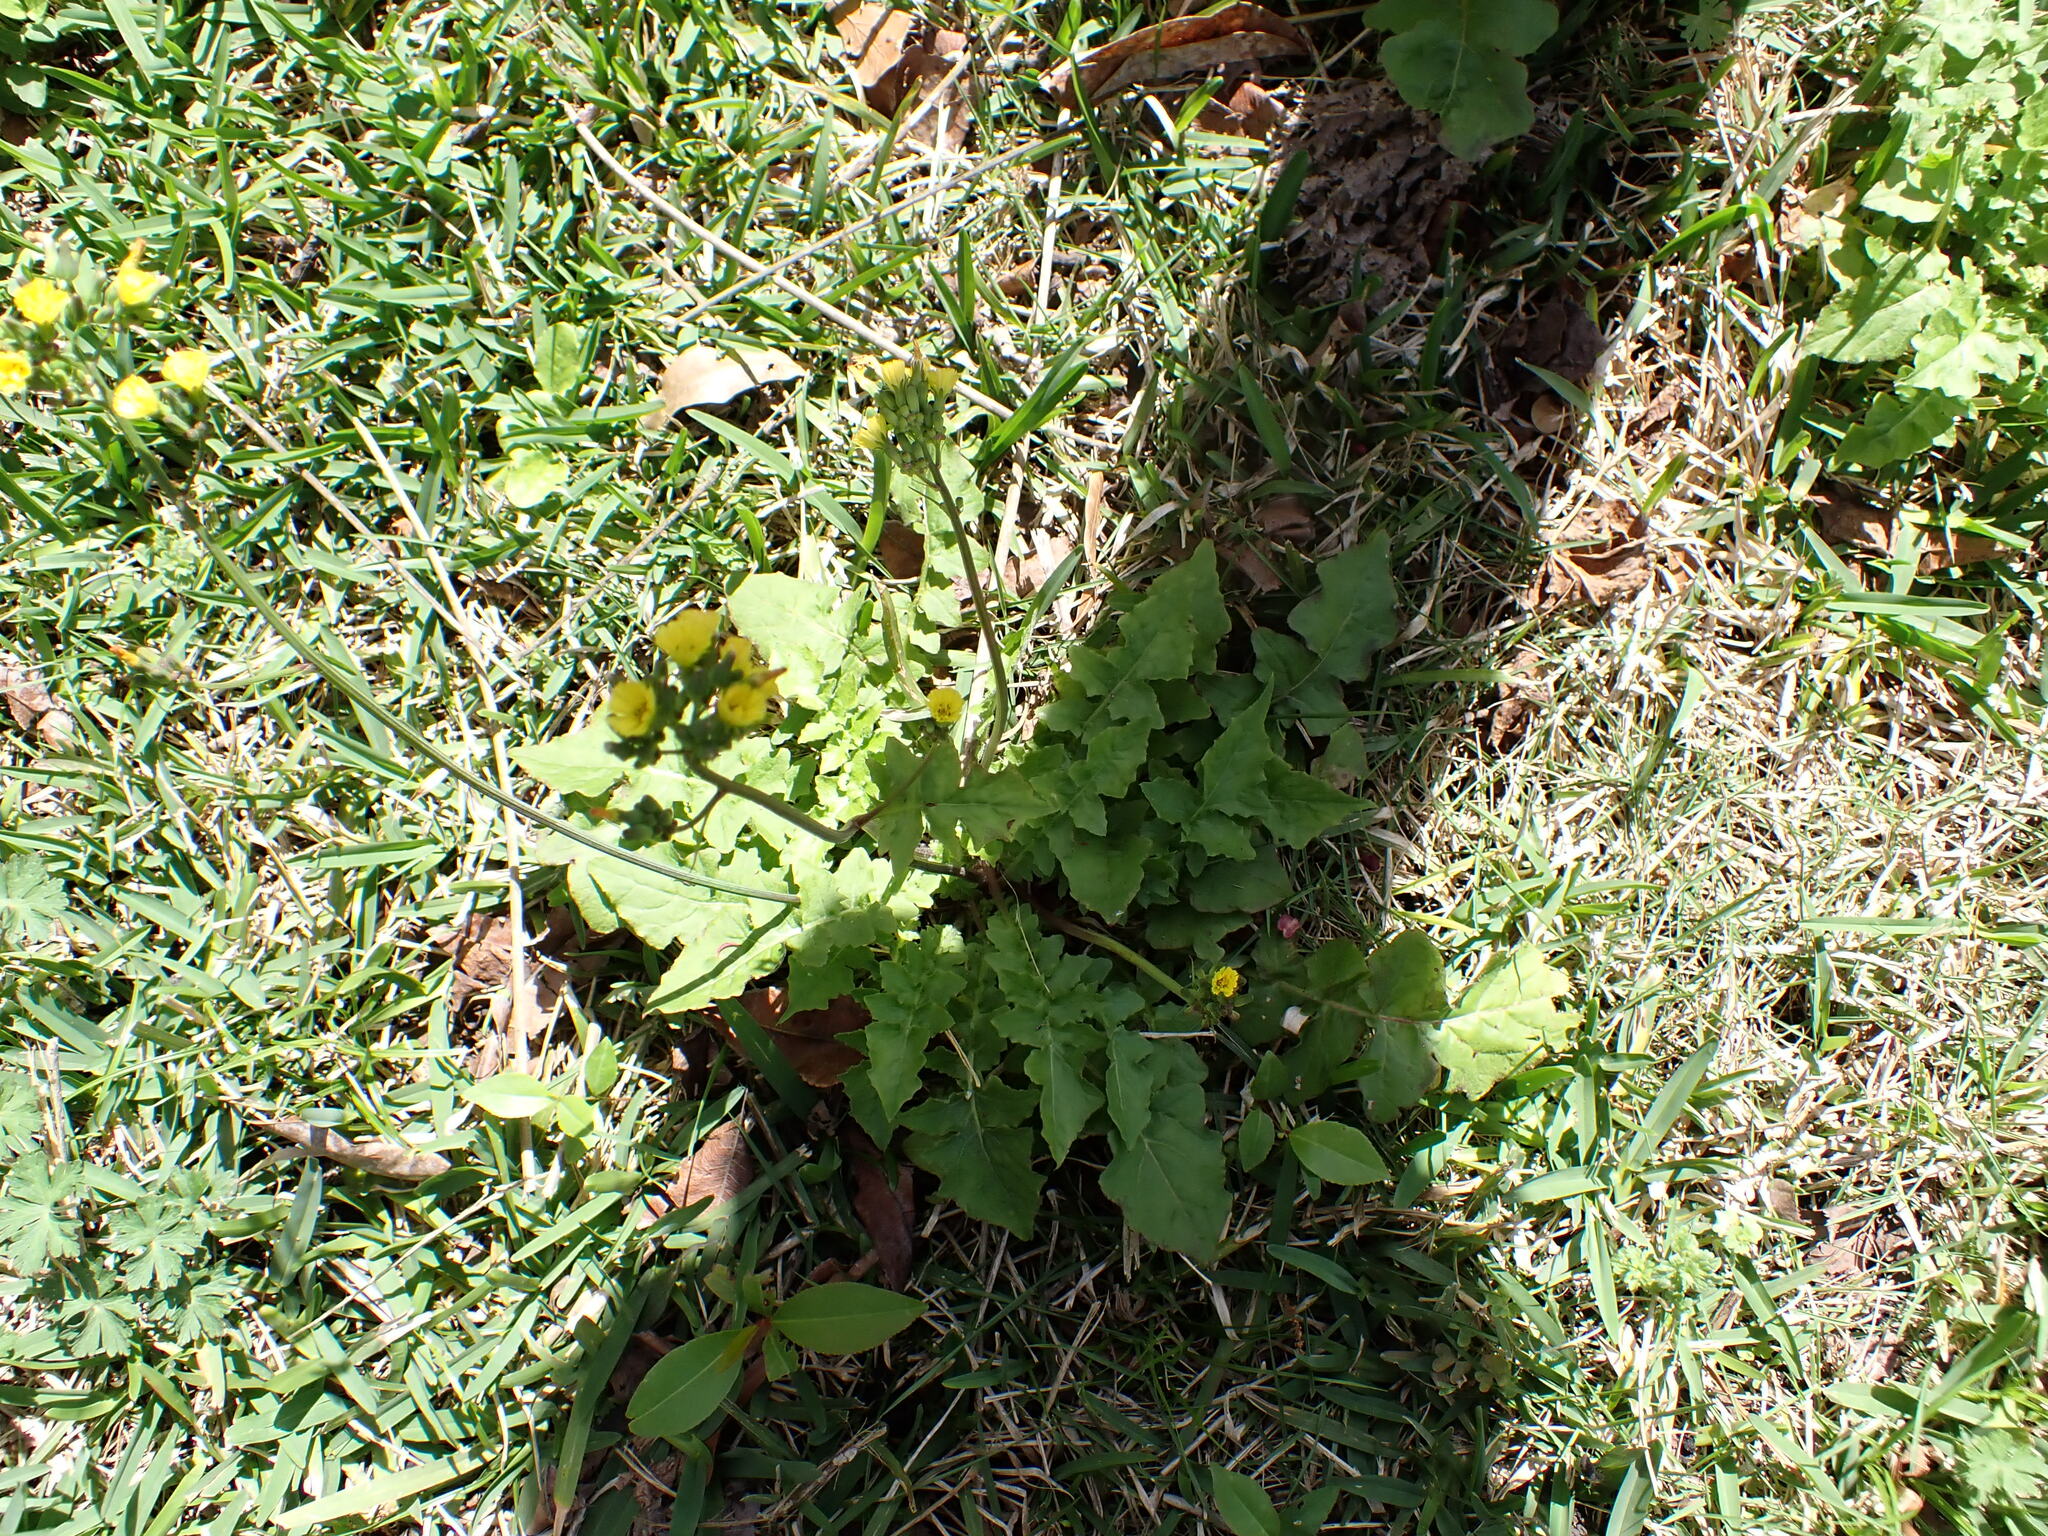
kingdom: Plantae
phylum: Tracheophyta
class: Magnoliopsida
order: Asterales
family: Asteraceae
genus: Youngia
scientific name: Youngia japonica
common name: Oriental false hawksbeard
